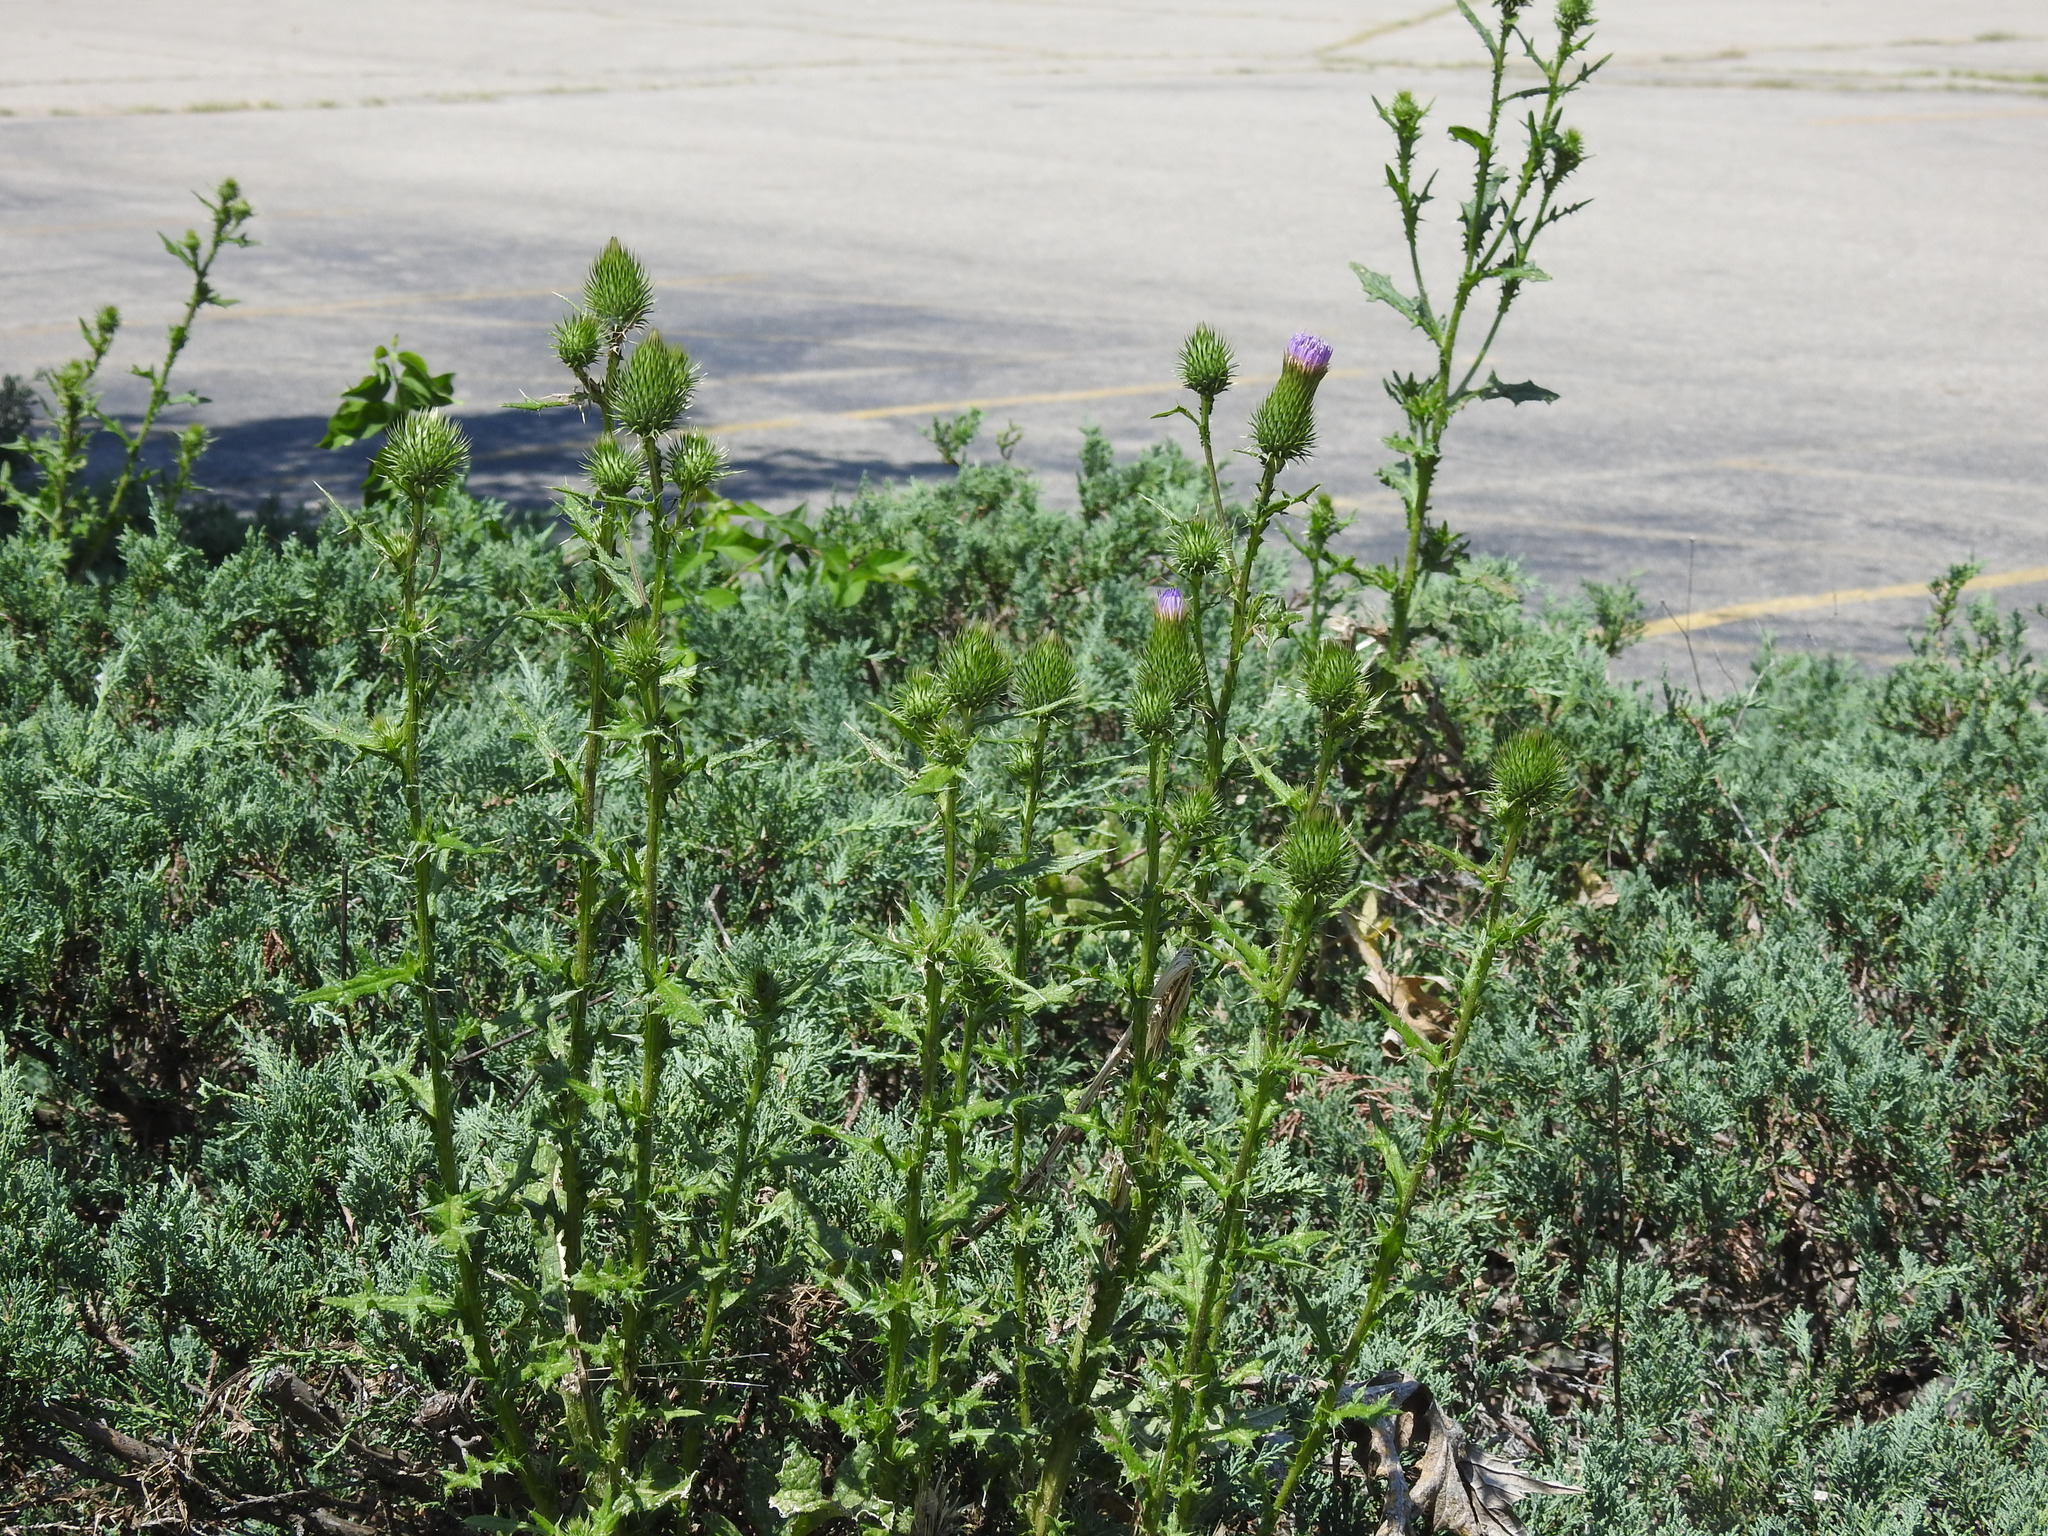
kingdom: Plantae
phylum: Tracheophyta
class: Magnoliopsida
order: Asterales
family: Asteraceae
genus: Cirsium
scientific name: Cirsium vulgare
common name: Bull thistle
